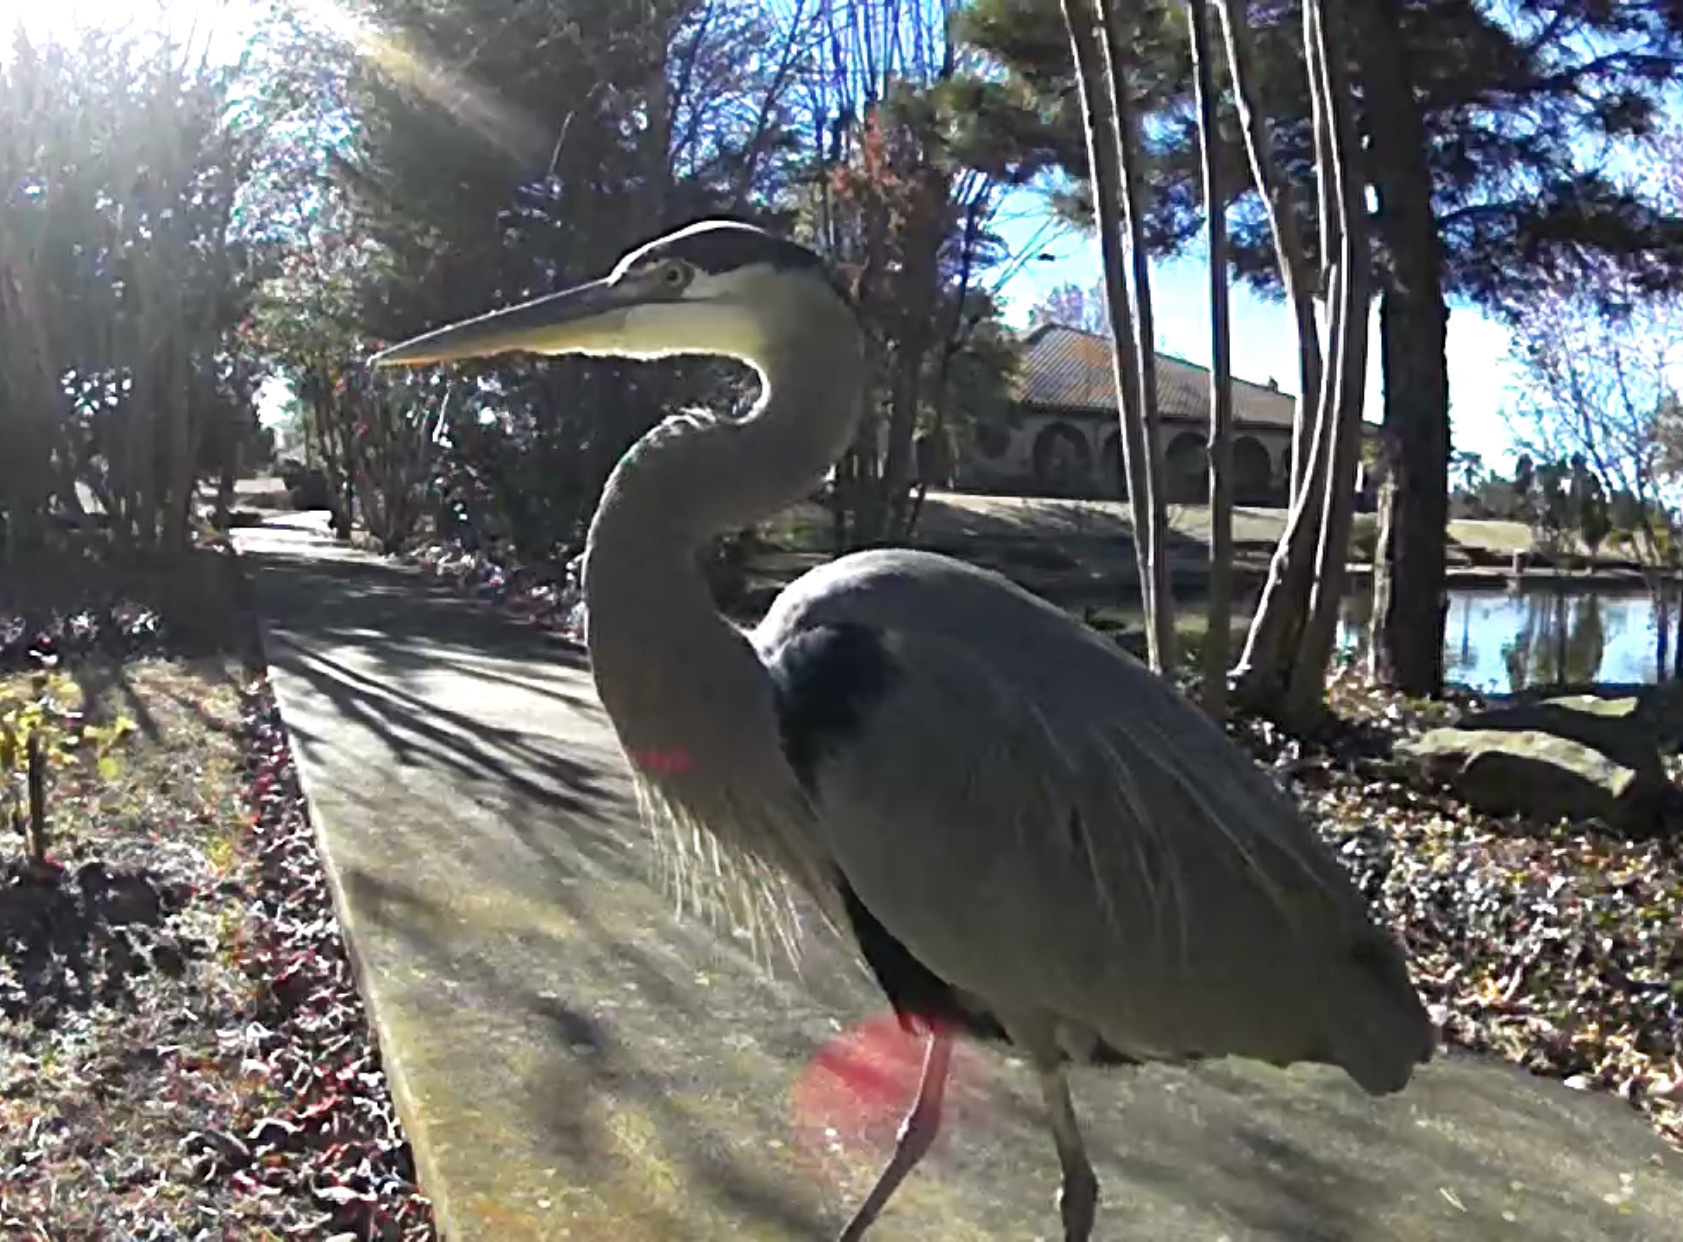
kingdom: Animalia
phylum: Chordata
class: Aves
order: Pelecaniformes
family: Ardeidae
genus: Ardea
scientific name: Ardea herodias
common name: Great blue heron
